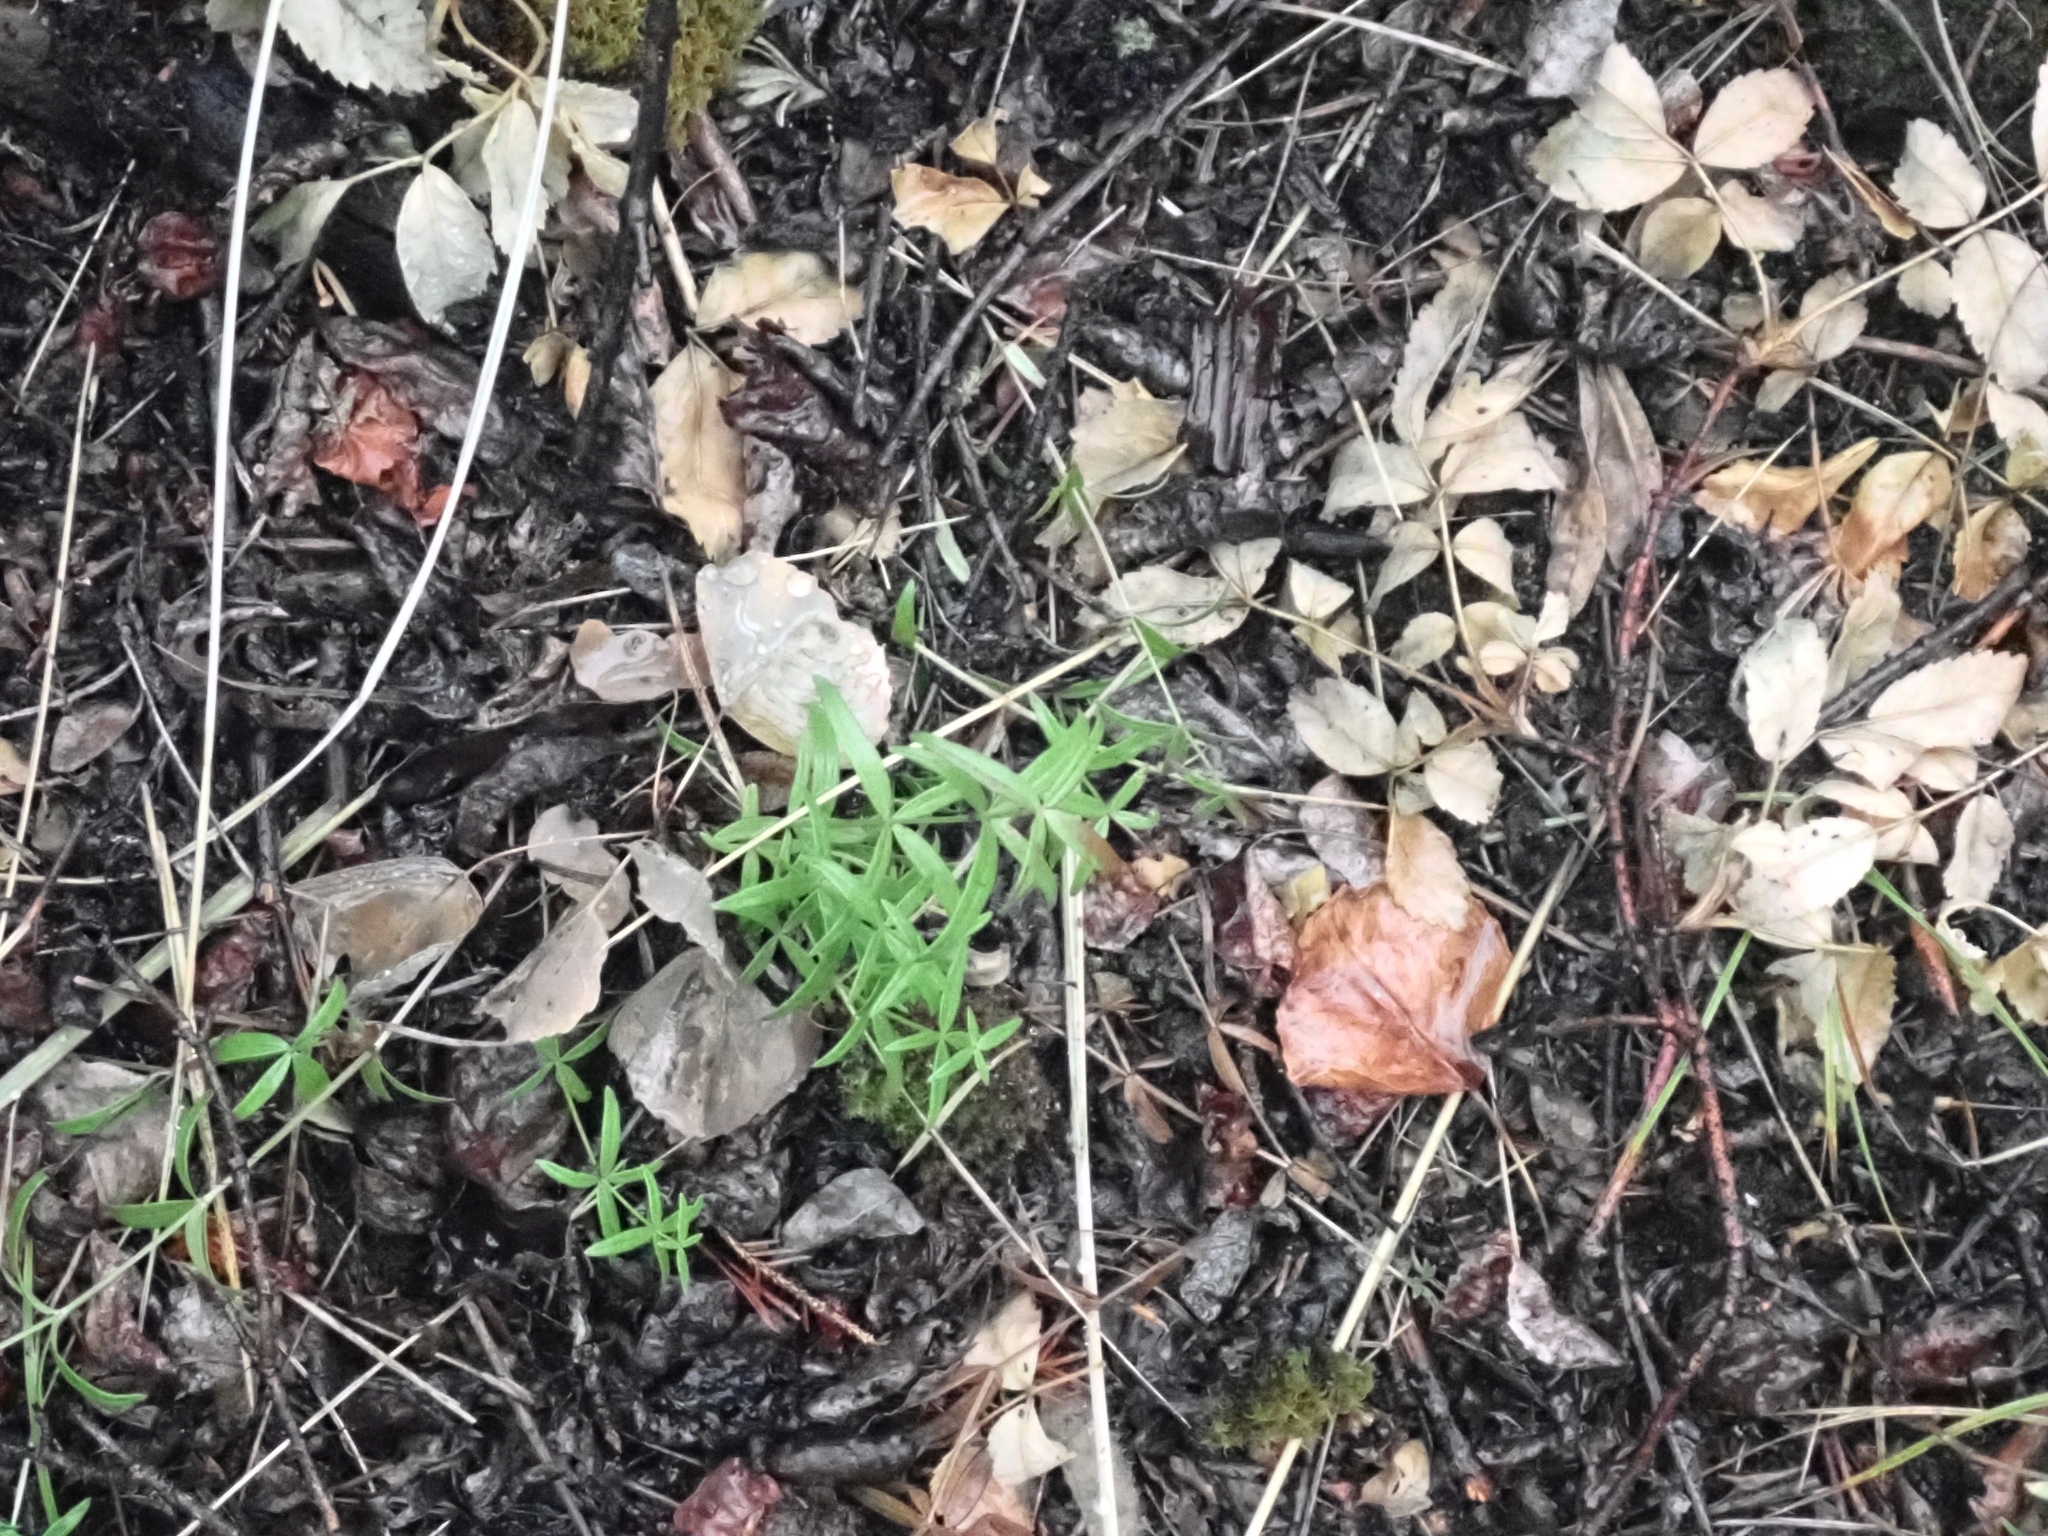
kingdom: Plantae
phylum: Tracheophyta
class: Magnoliopsida
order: Gentianales
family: Rubiaceae
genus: Galium
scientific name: Galium boreale
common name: Northern bedstraw
